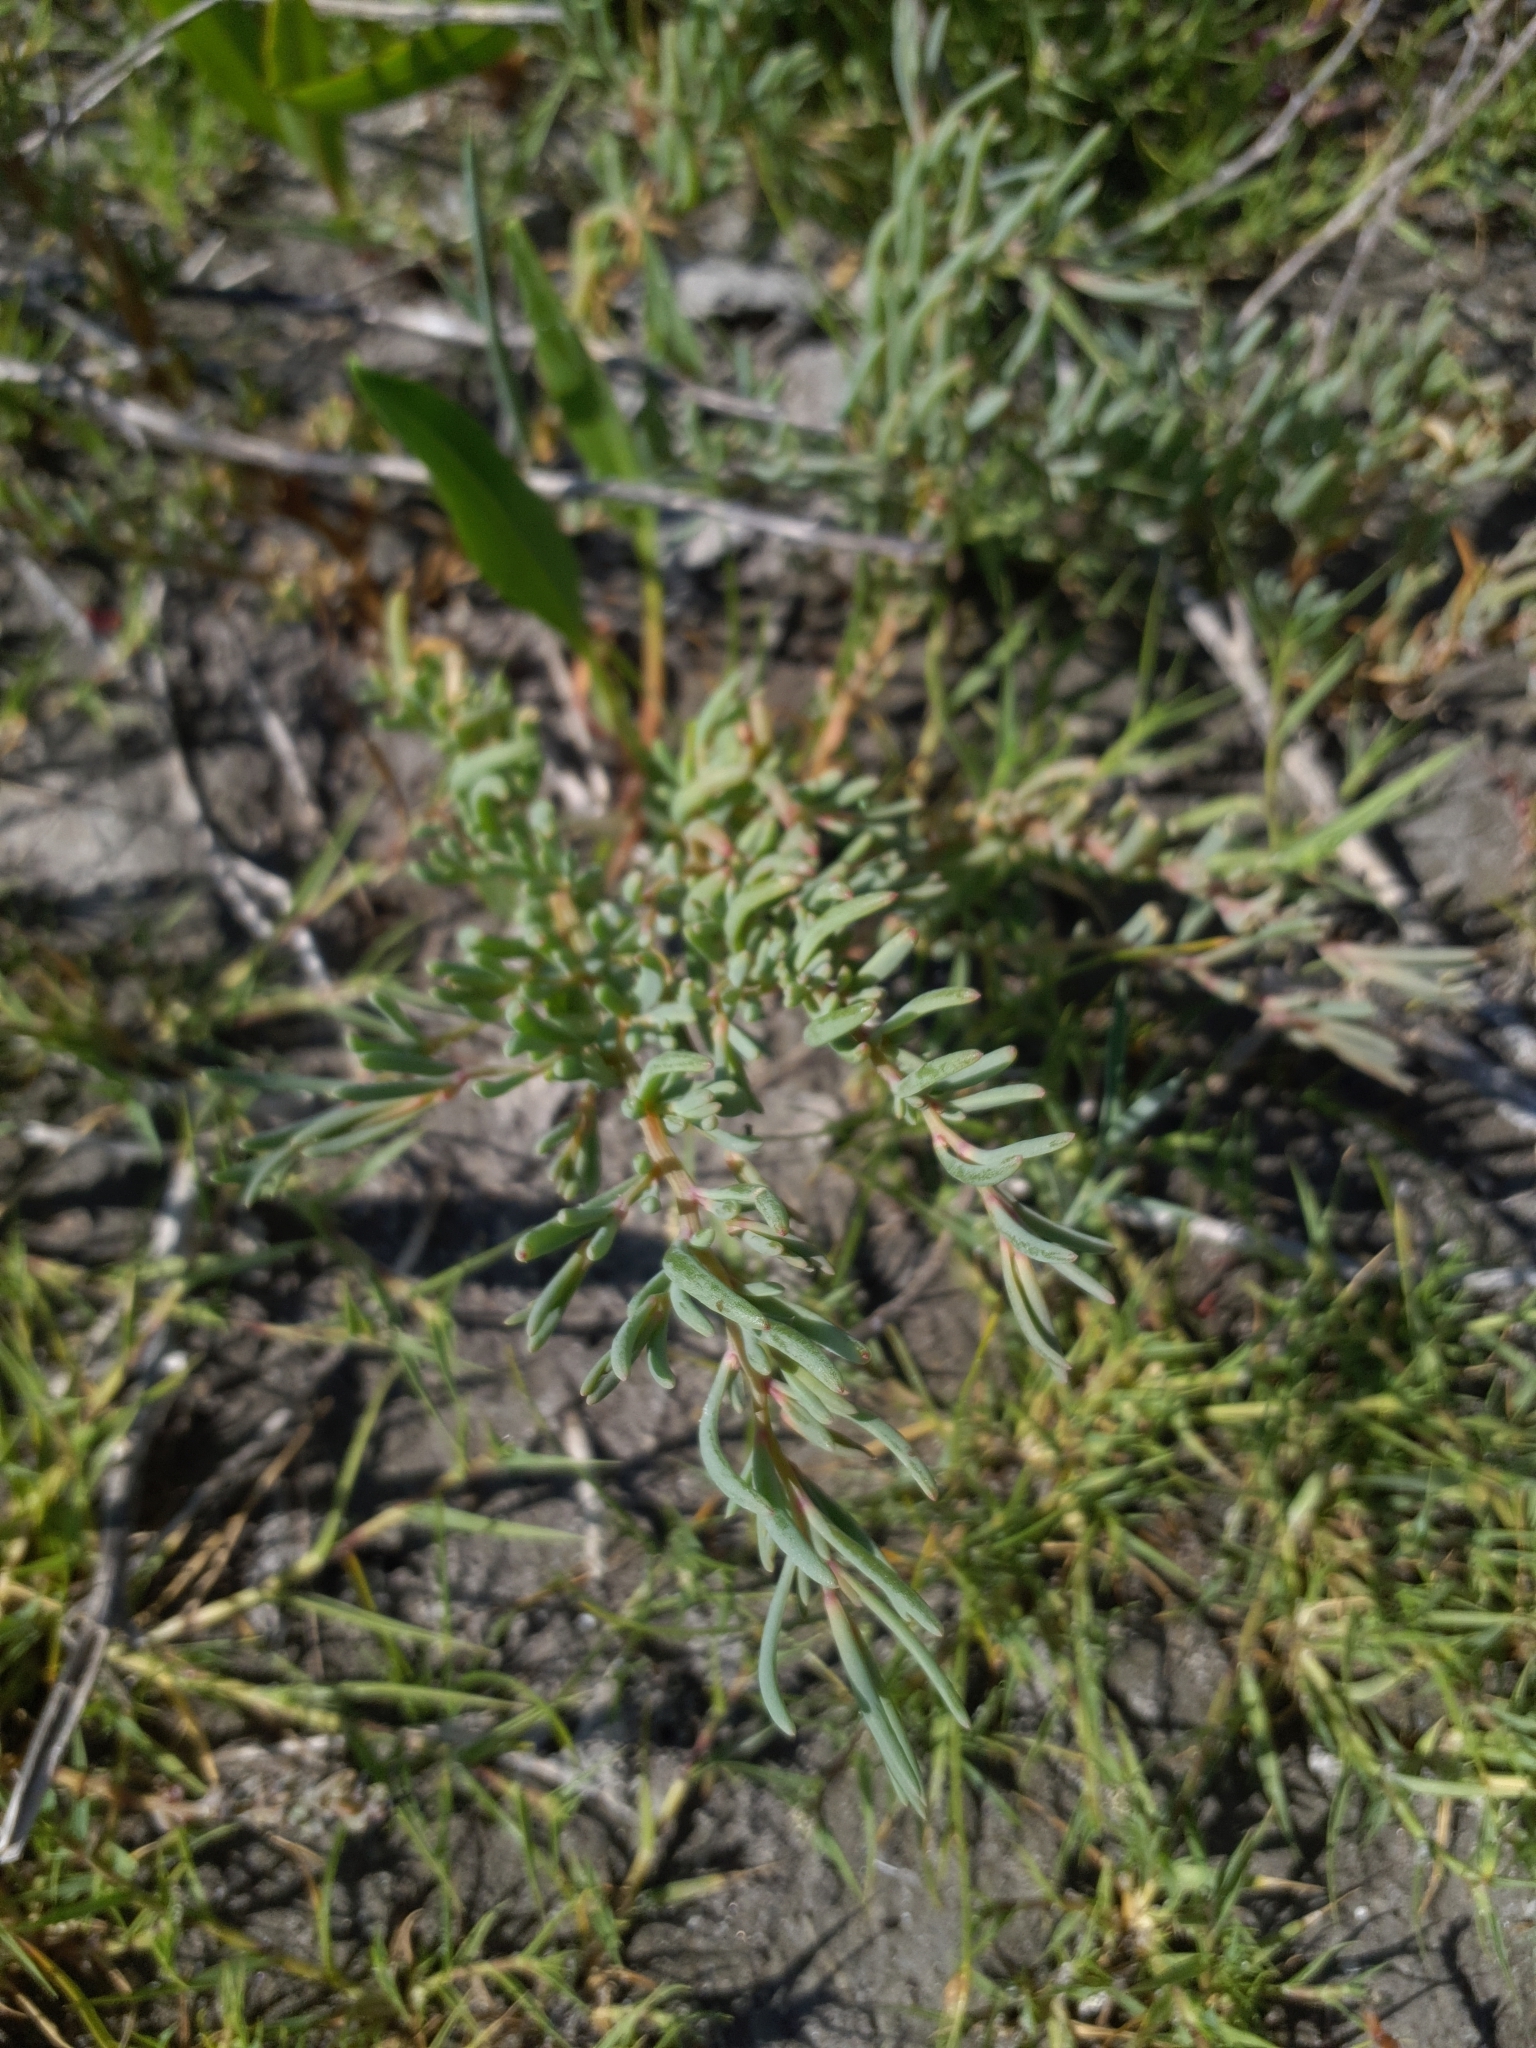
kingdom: Plantae
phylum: Tracheophyta
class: Magnoliopsida
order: Caryophyllales
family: Amaranthaceae
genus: Suaeda
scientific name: Suaeda pannonica
